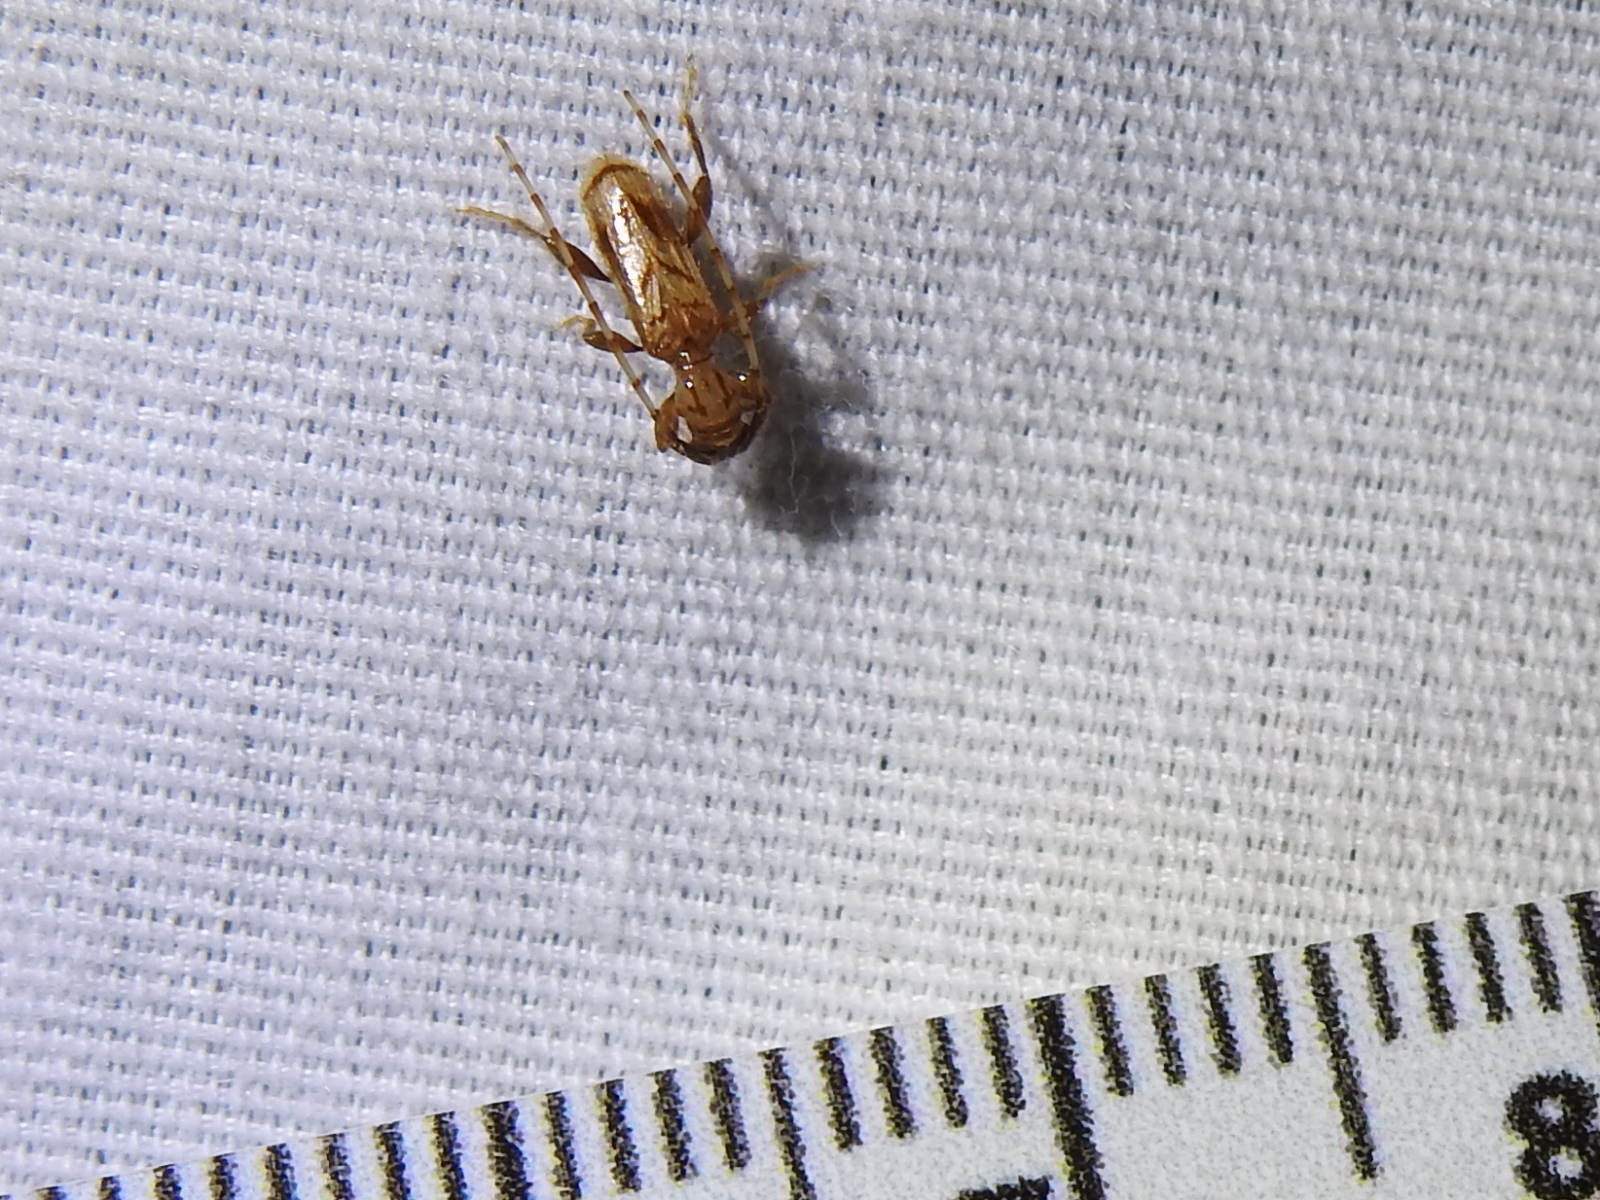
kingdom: Animalia
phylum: Arthropoda
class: Insecta
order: Coleoptera
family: Cerambycidae
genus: Obrium
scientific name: Obrium maculatum
